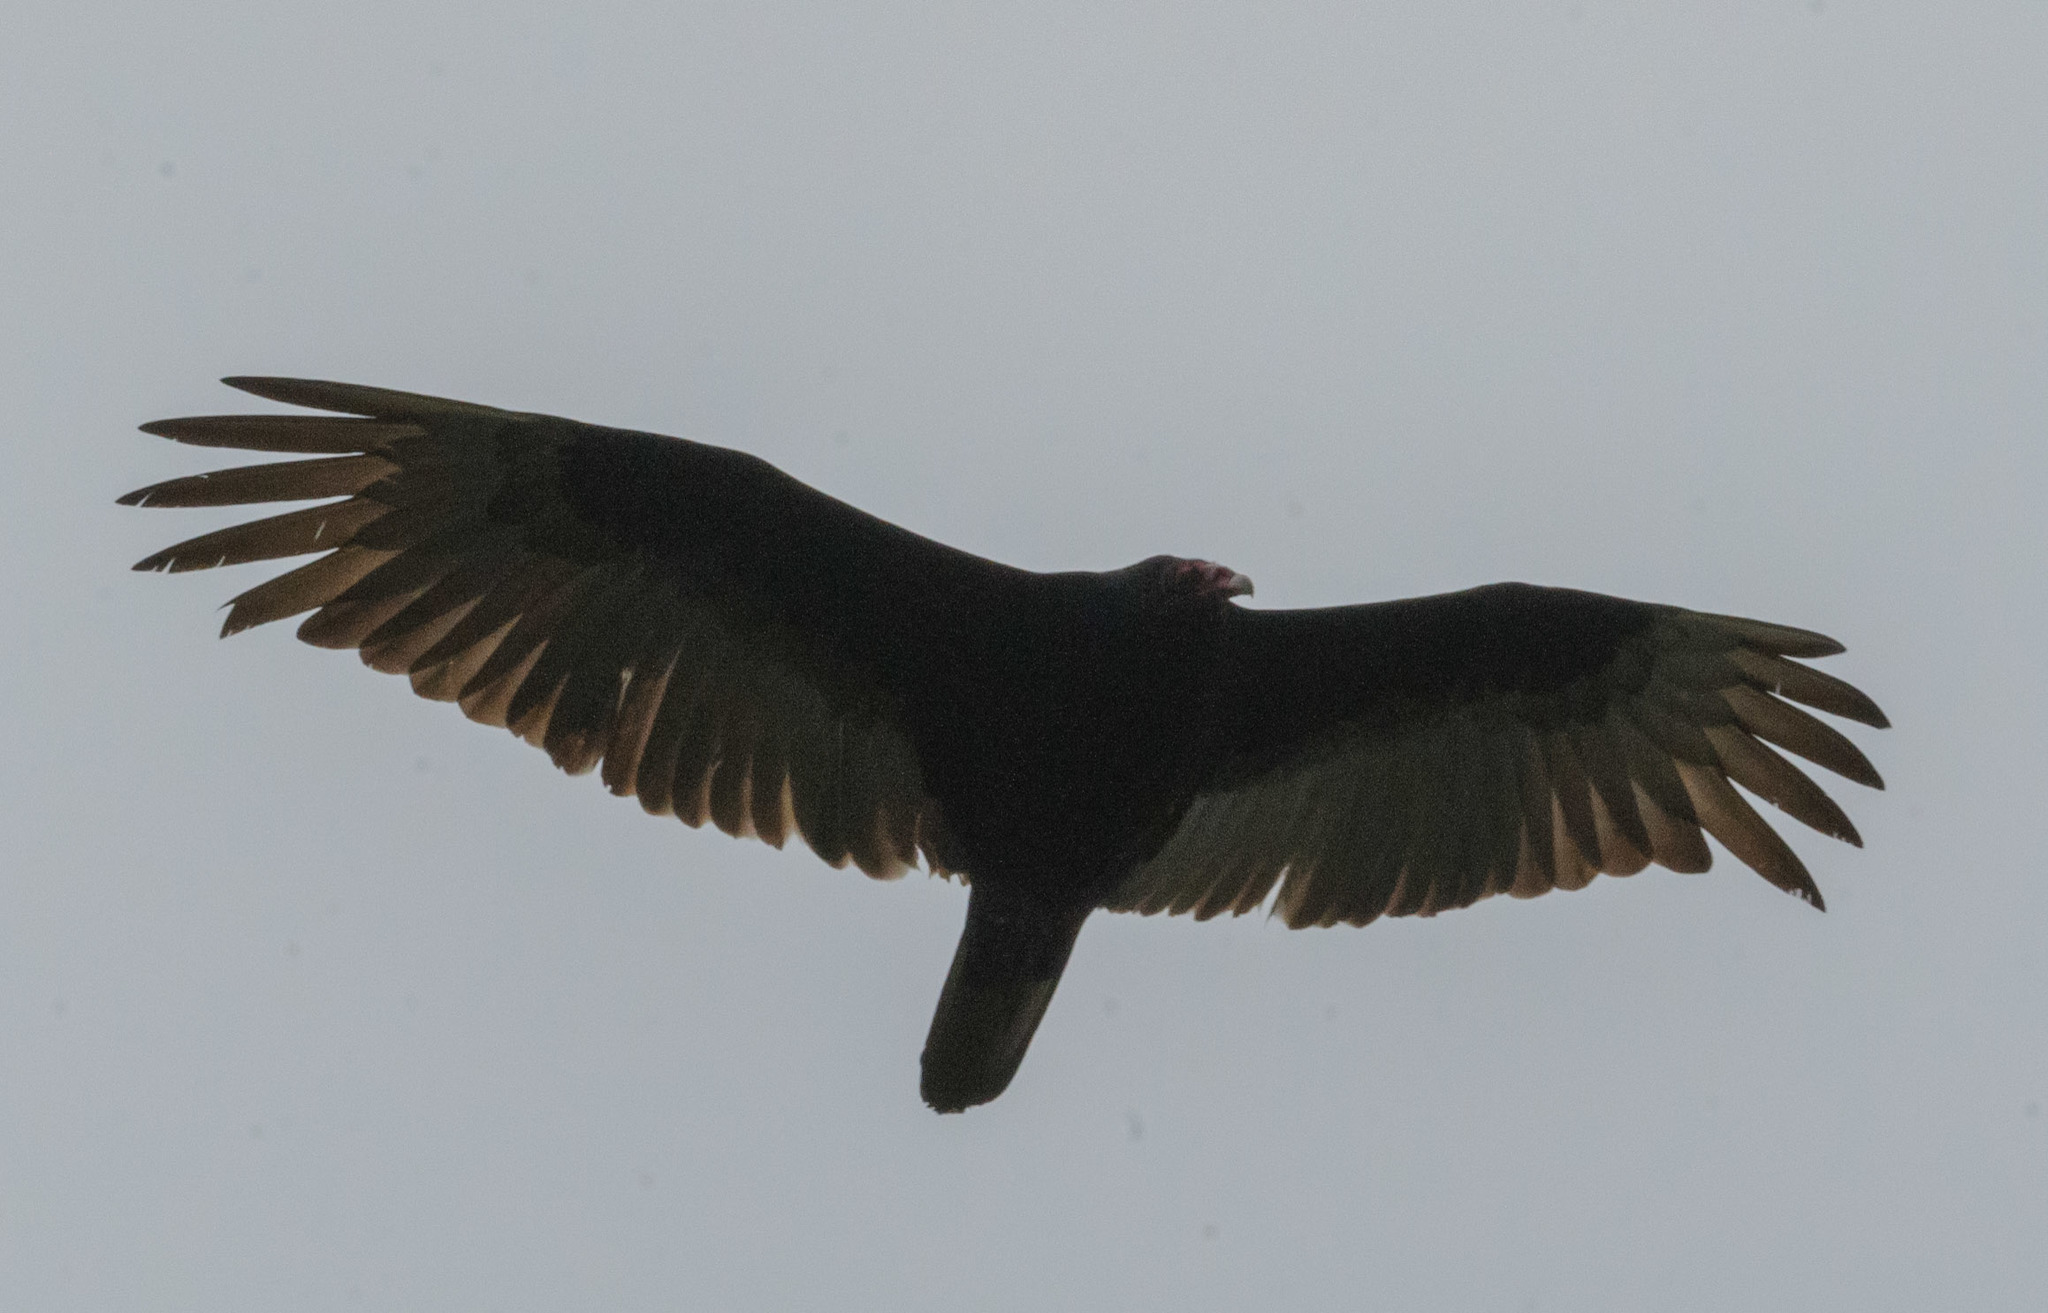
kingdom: Animalia
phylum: Chordata
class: Aves
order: Accipitriformes
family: Cathartidae
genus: Cathartes
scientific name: Cathartes aura
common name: Turkey vulture
